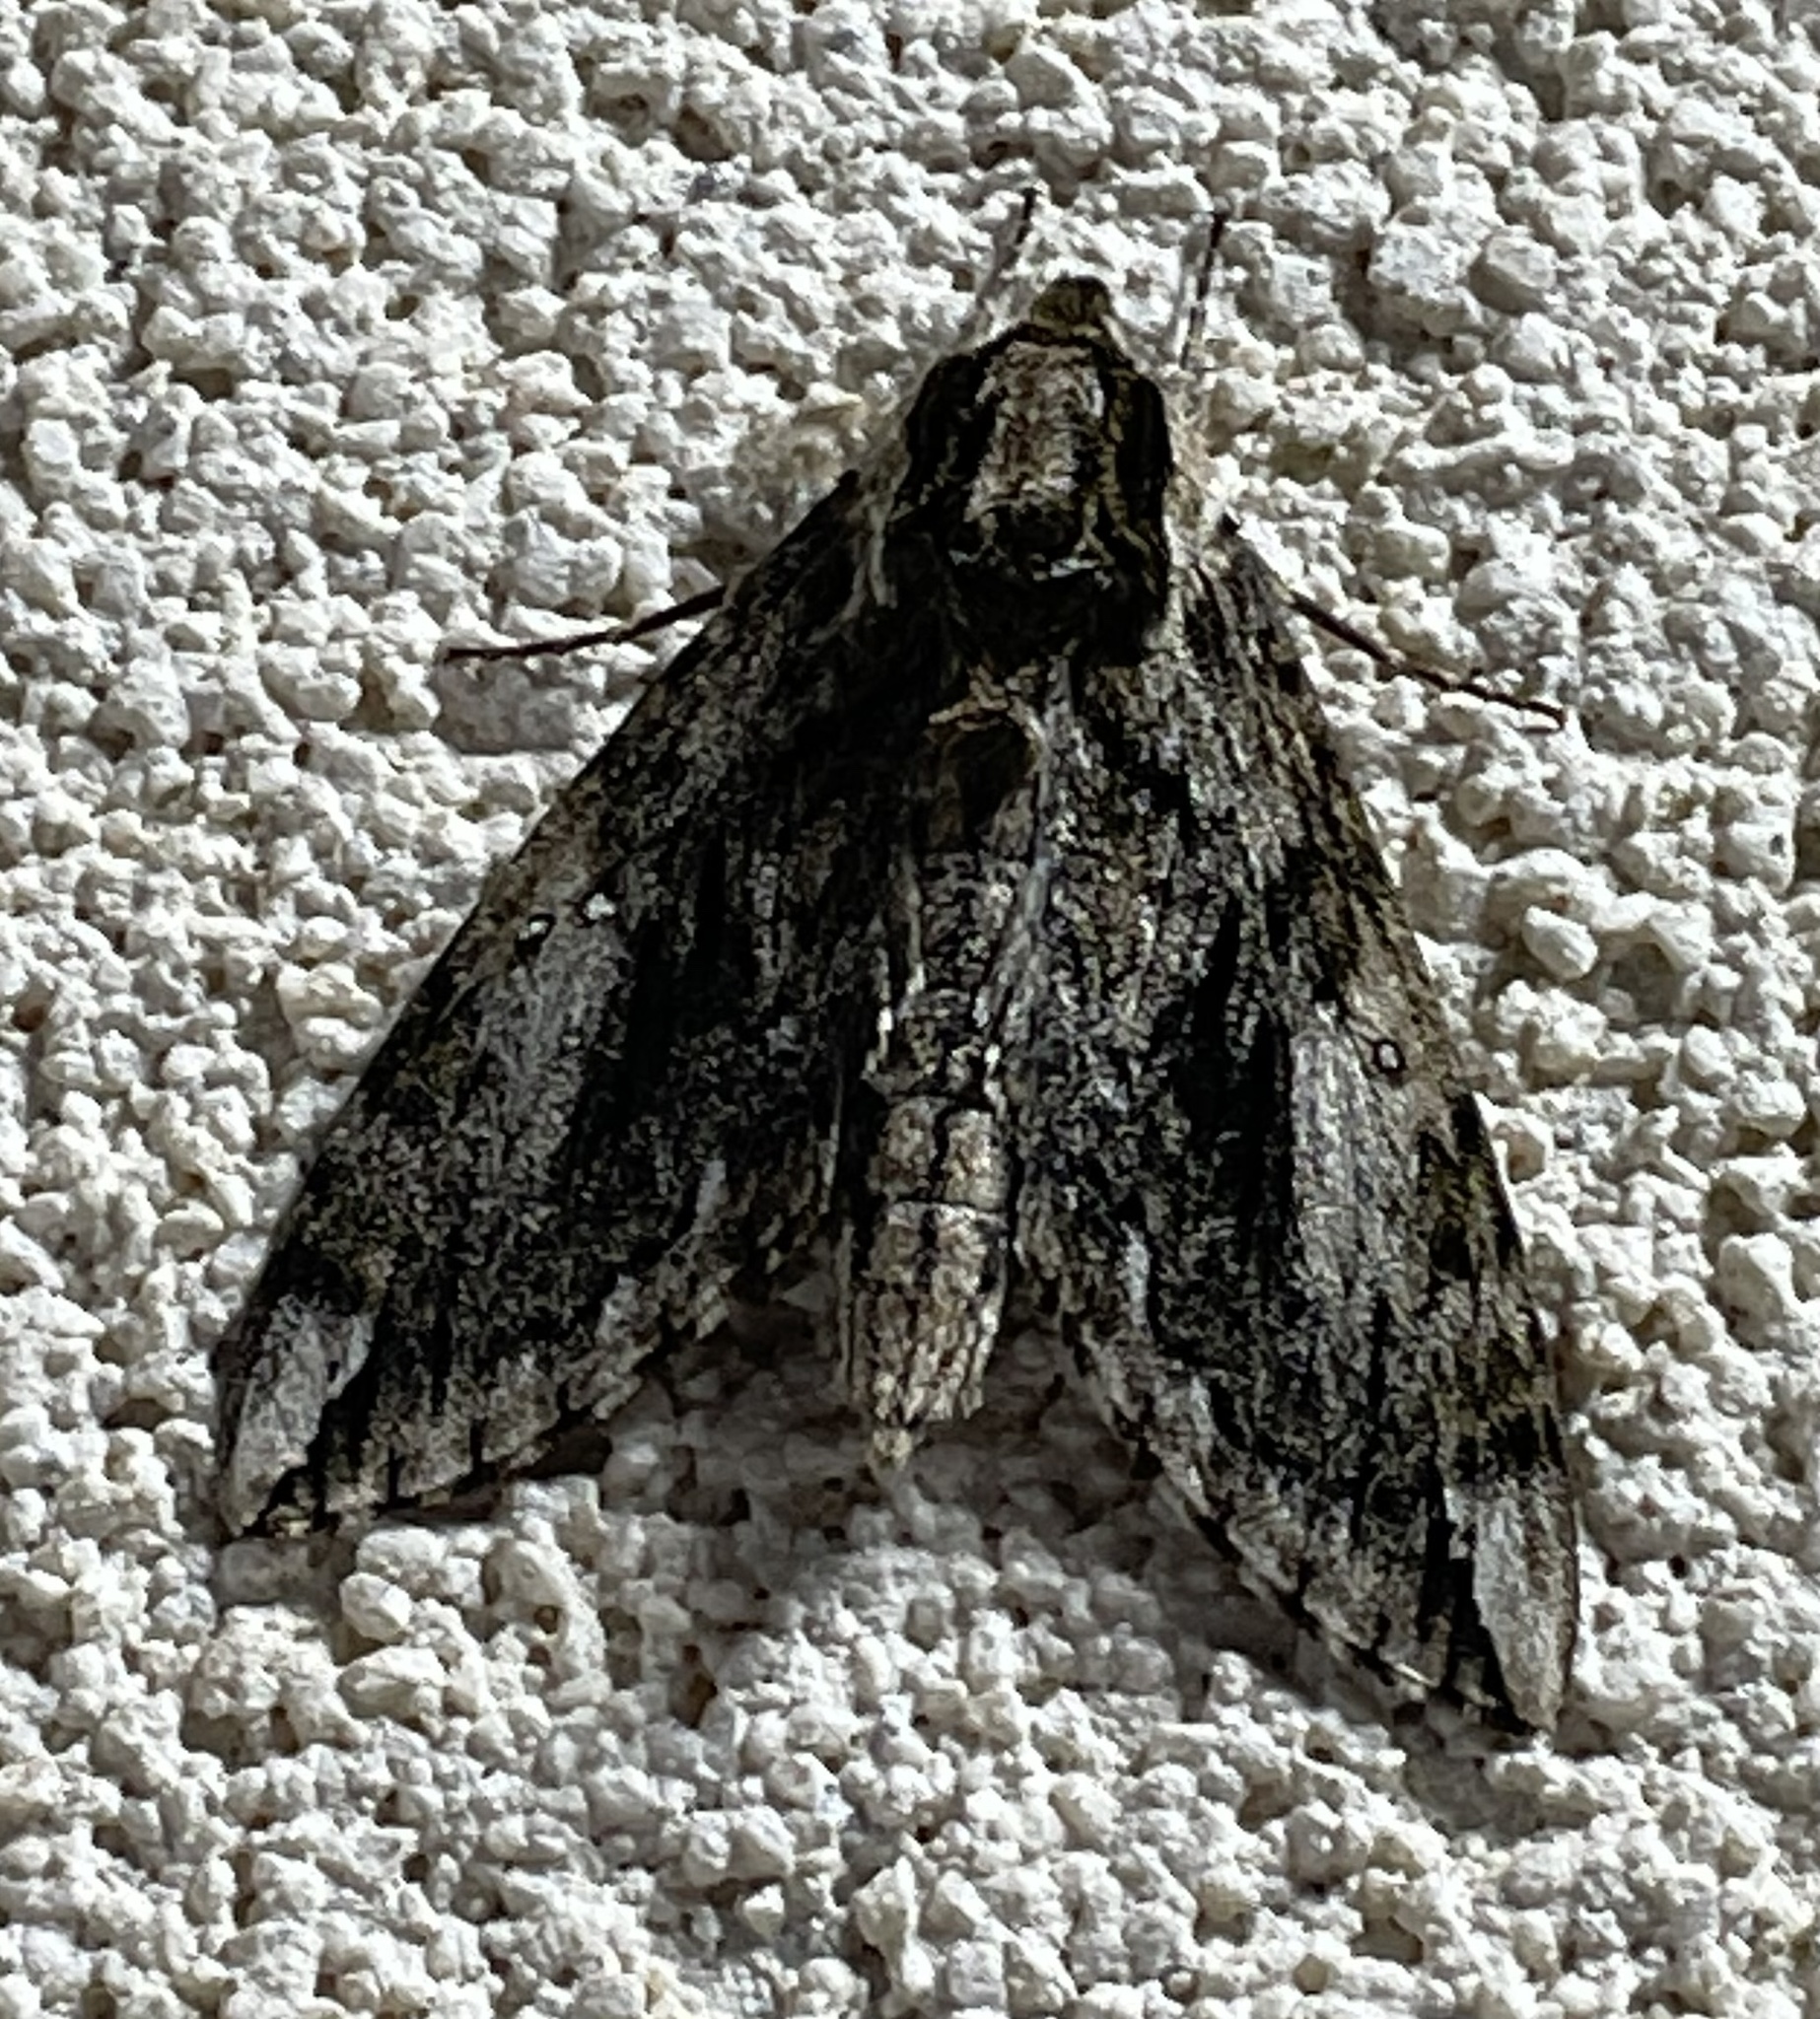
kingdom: Animalia
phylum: Arthropoda
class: Insecta
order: Lepidoptera
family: Sphingidae
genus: Ceratomia
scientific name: Ceratomia hageni
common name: Hagen's sphinx
